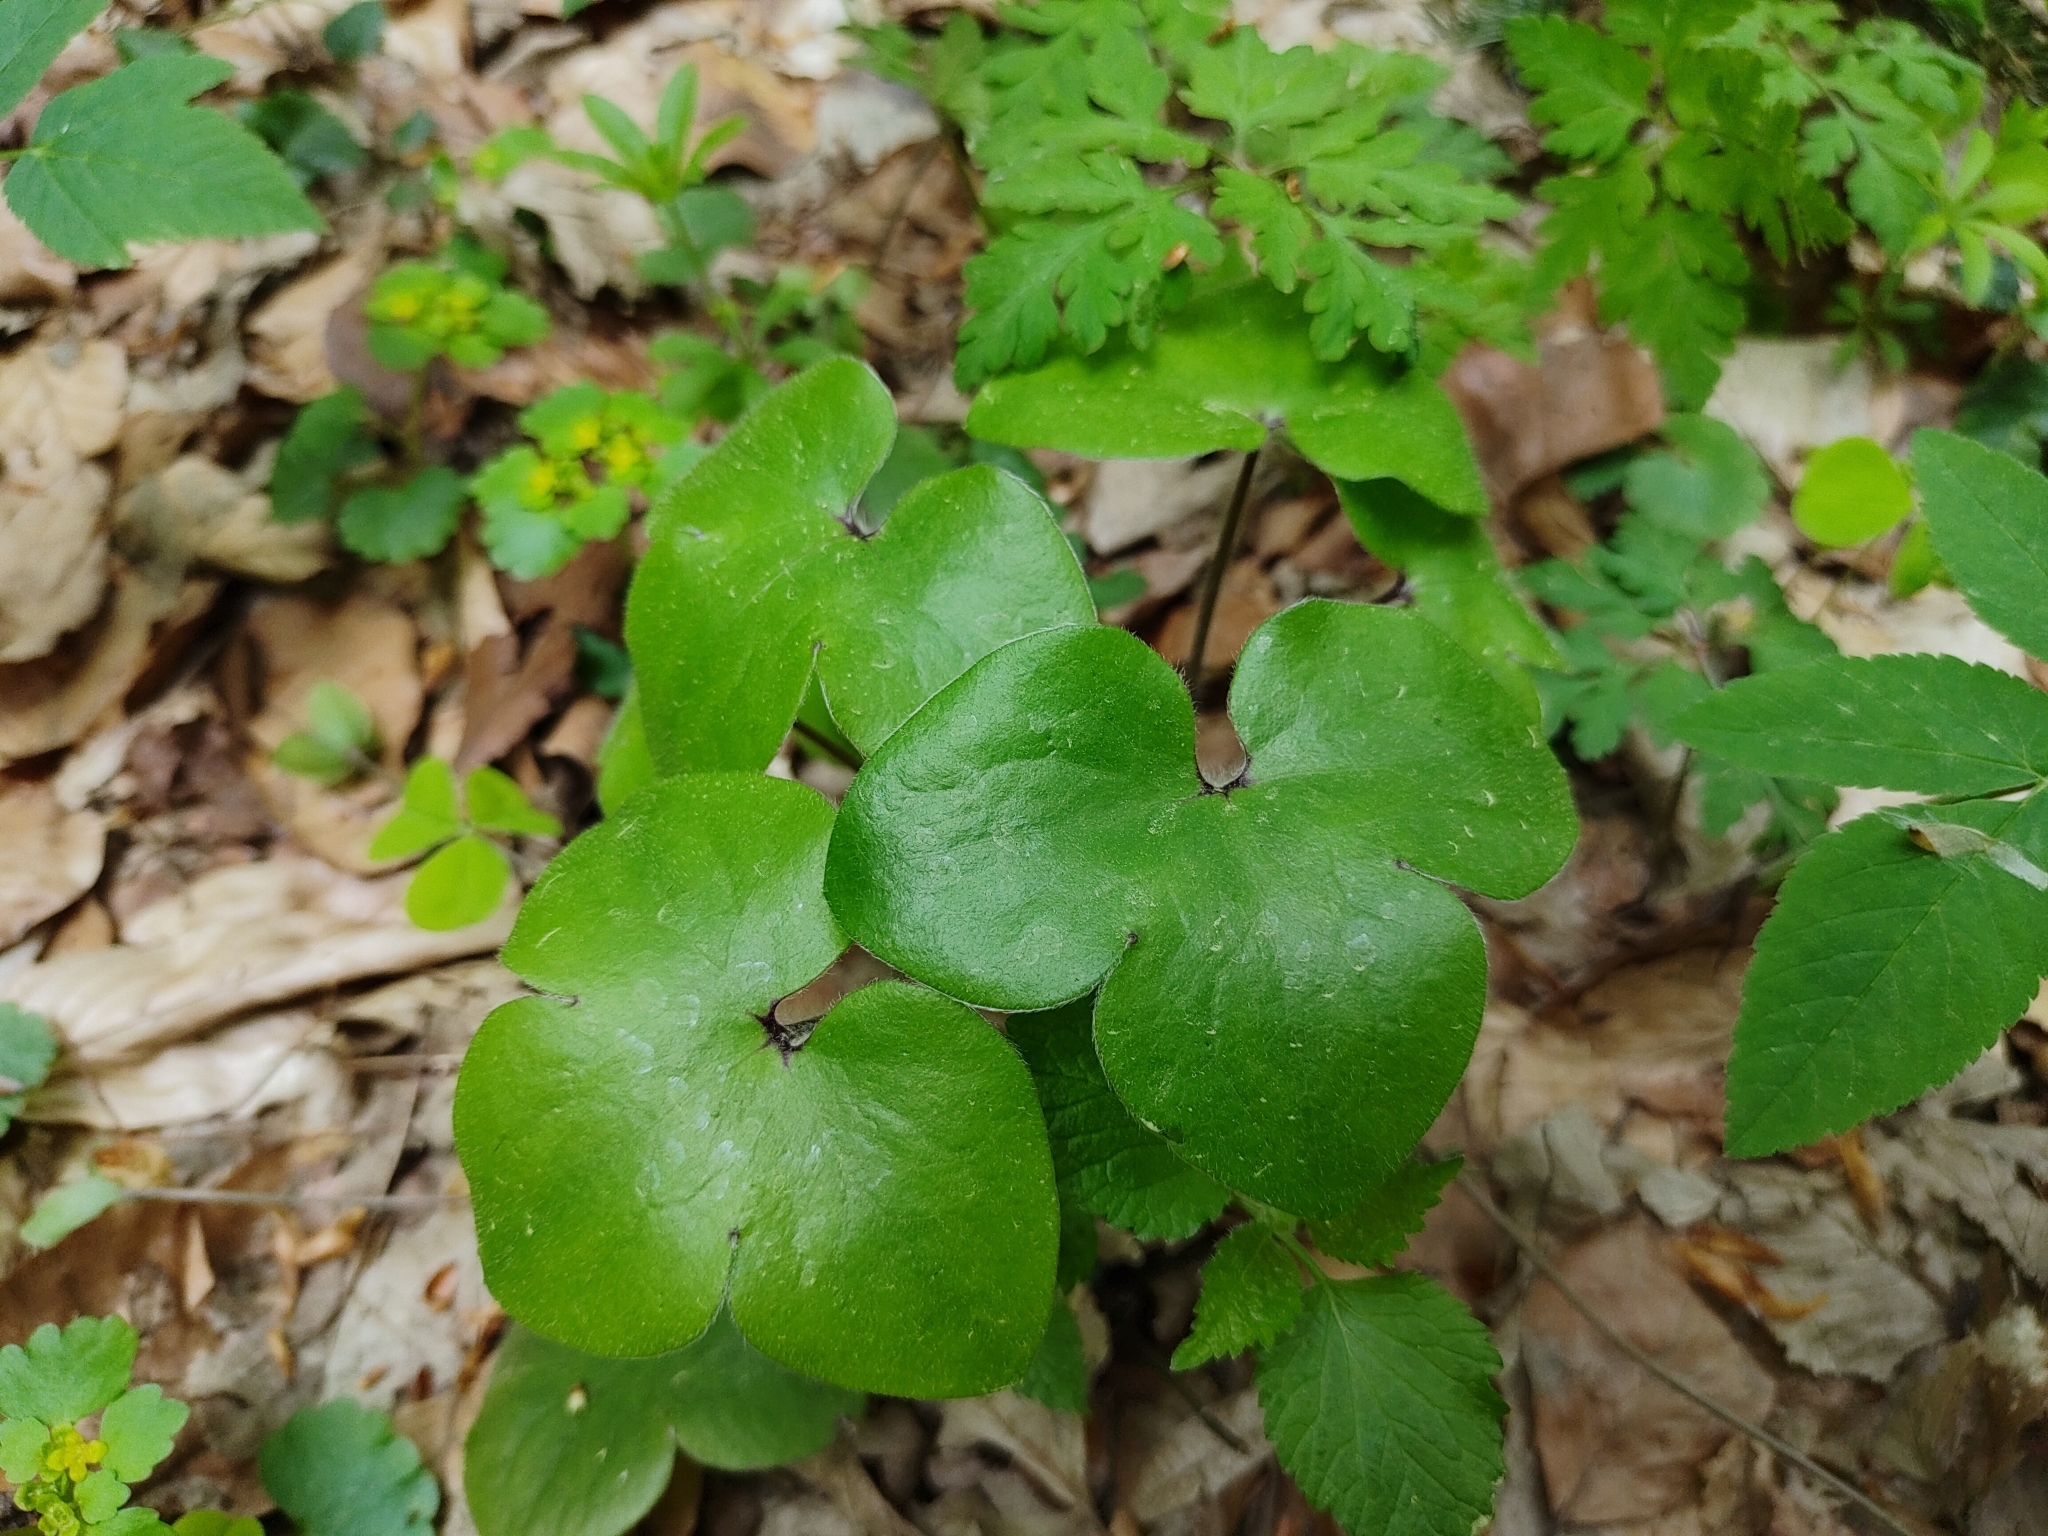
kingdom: Plantae
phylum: Tracheophyta
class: Magnoliopsida
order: Ranunculales
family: Ranunculaceae
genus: Hepatica
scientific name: Hepatica nobilis
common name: Liverleaf
